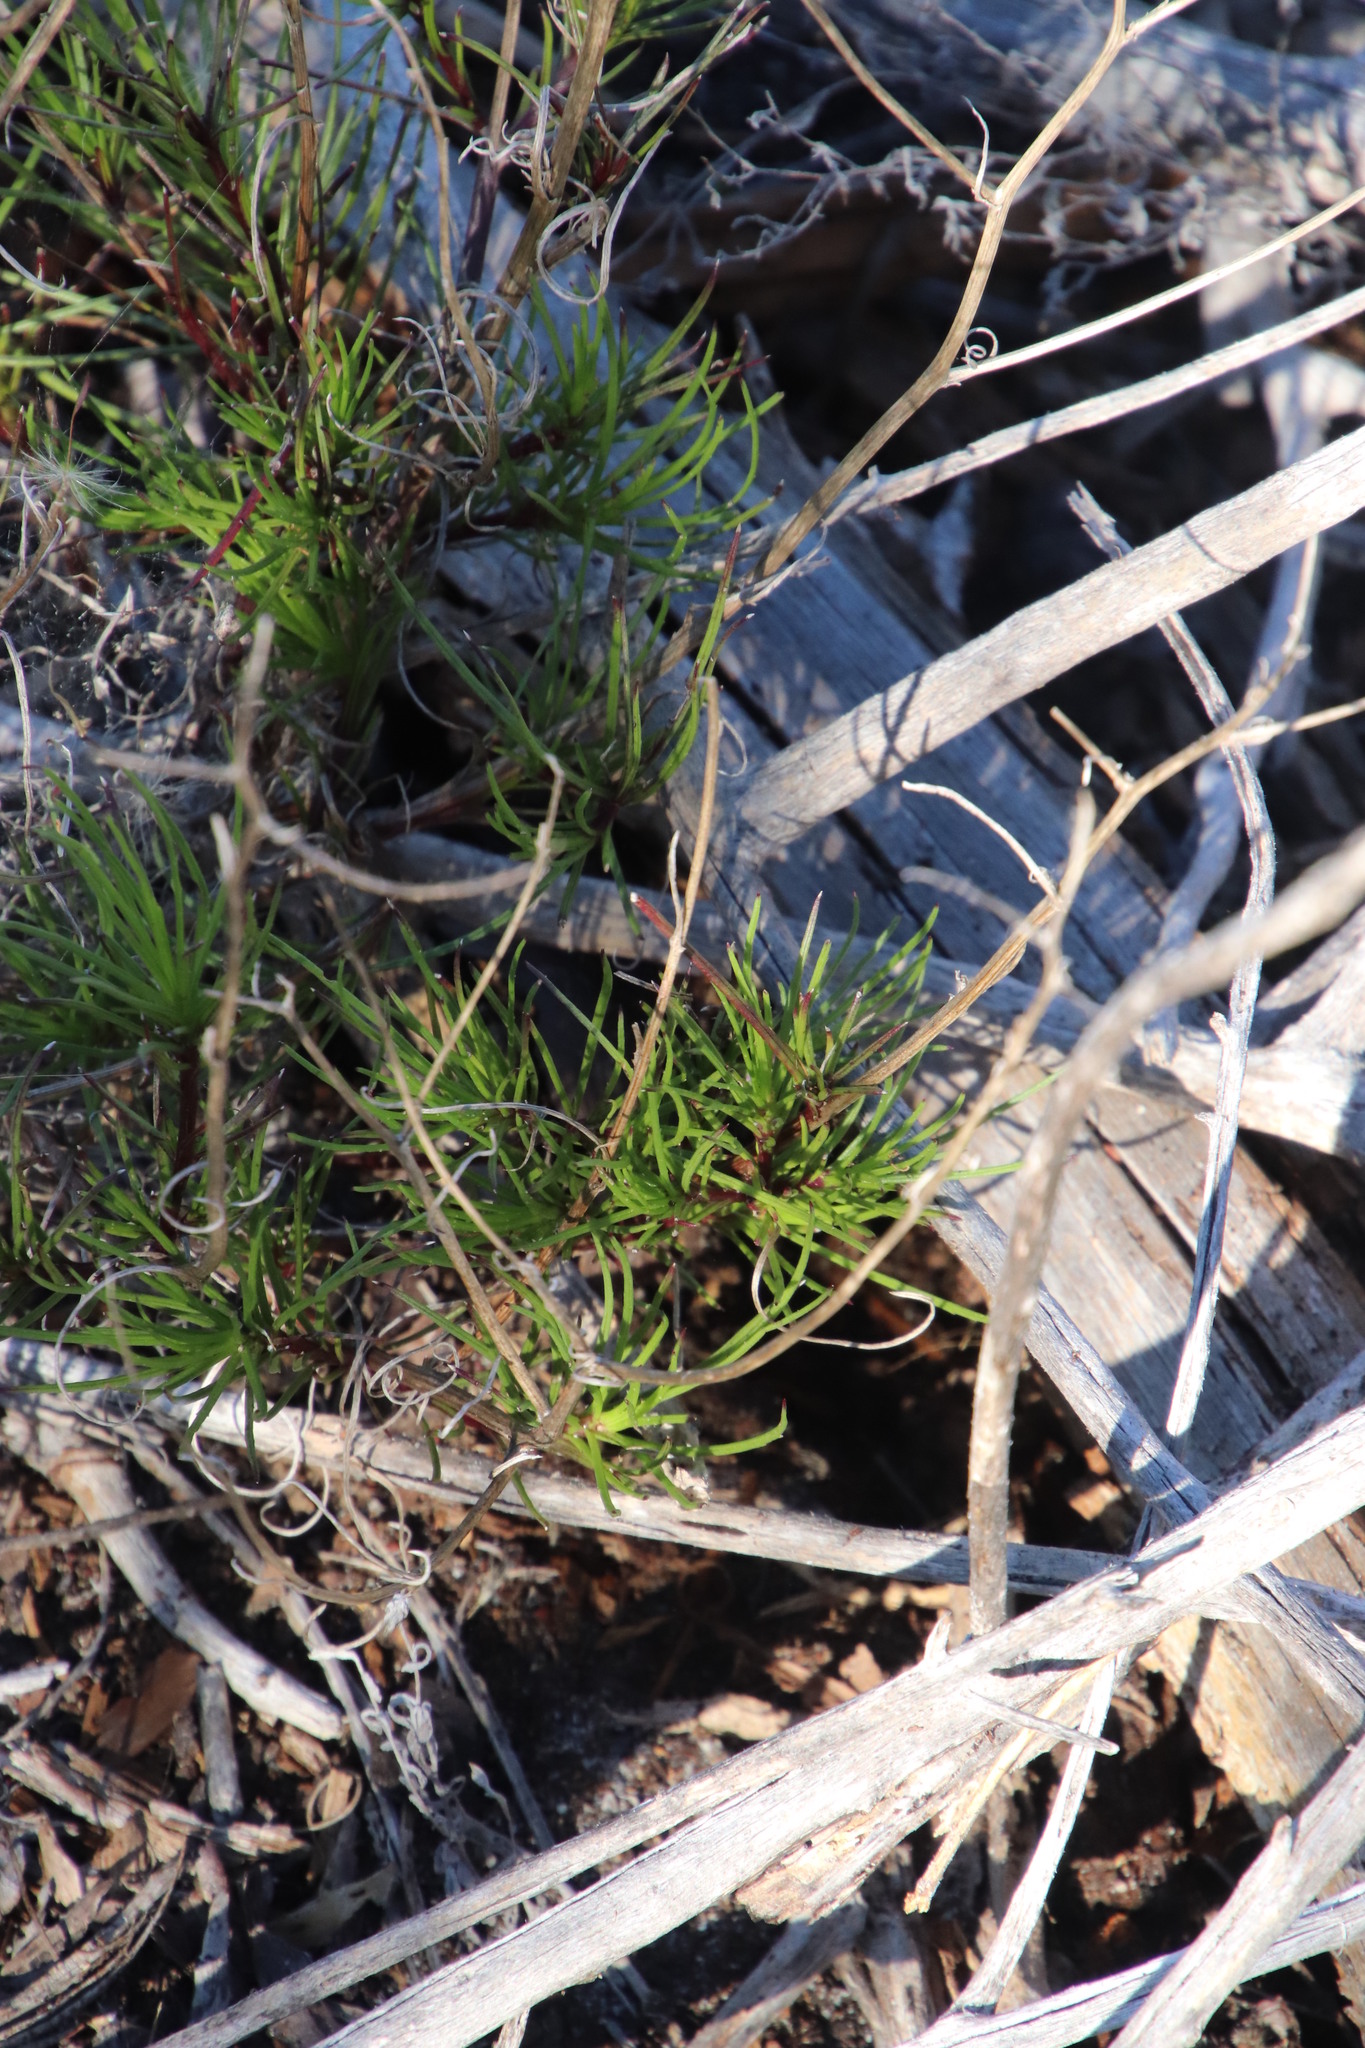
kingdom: Plantae
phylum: Tracheophyta
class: Magnoliopsida
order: Asterales
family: Asteraceae
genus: Senecio
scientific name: Senecio burchellii
